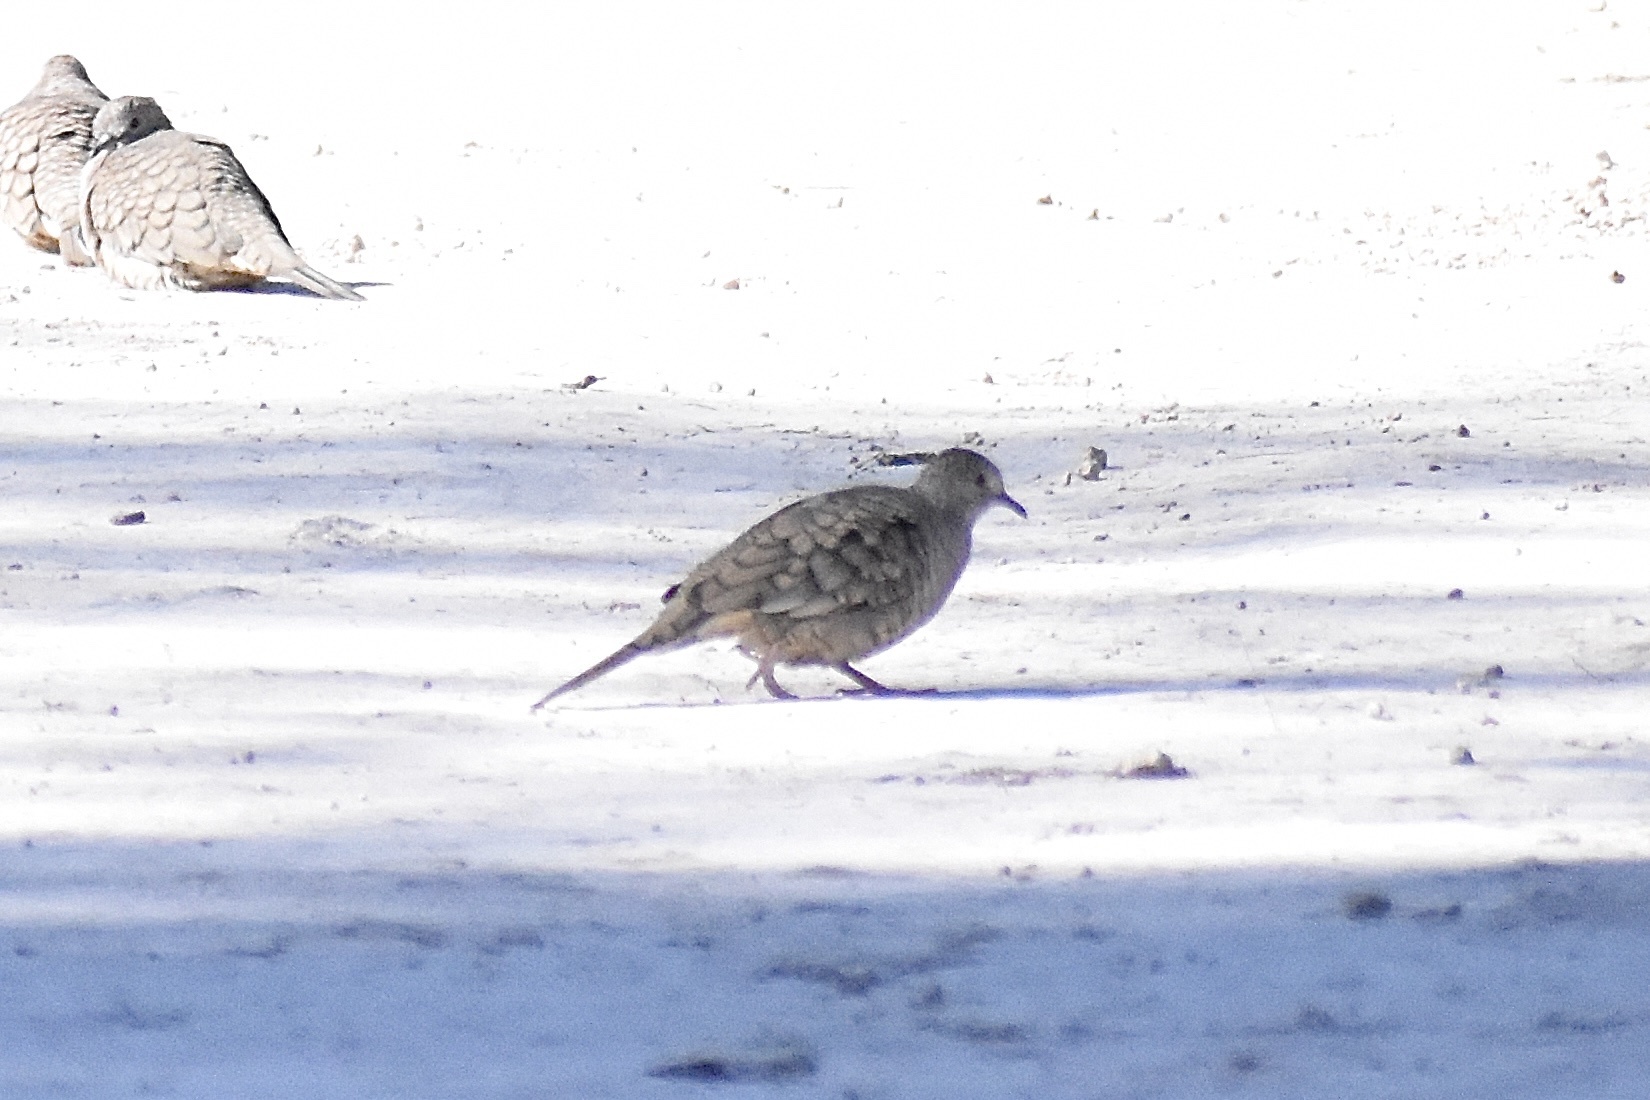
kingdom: Animalia
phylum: Chordata
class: Aves
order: Columbiformes
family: Columbidae
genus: Columbina
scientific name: Columbina inca
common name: Inca dove
